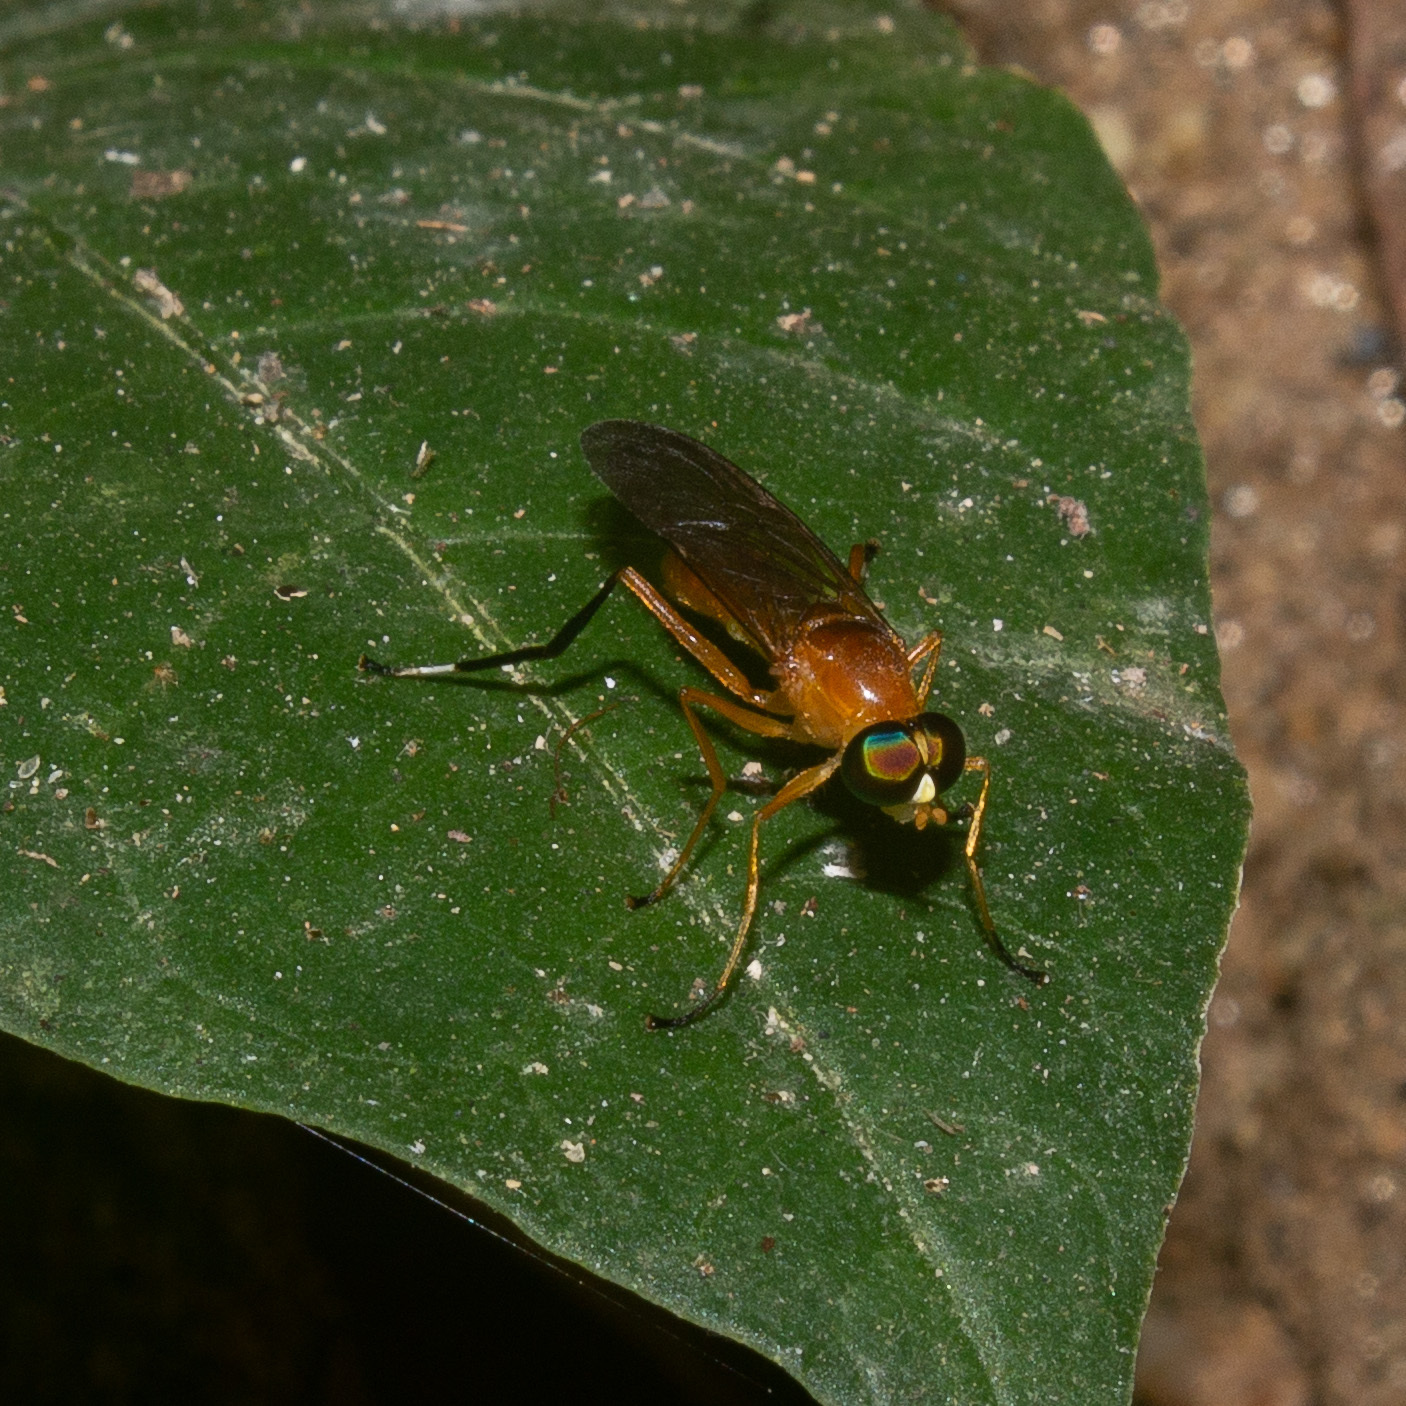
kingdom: Animalia
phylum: Arthropoda
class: Insecta
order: Diptera
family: Stratiomyidae
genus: Ptecticus
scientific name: Ptecticus testaceus
